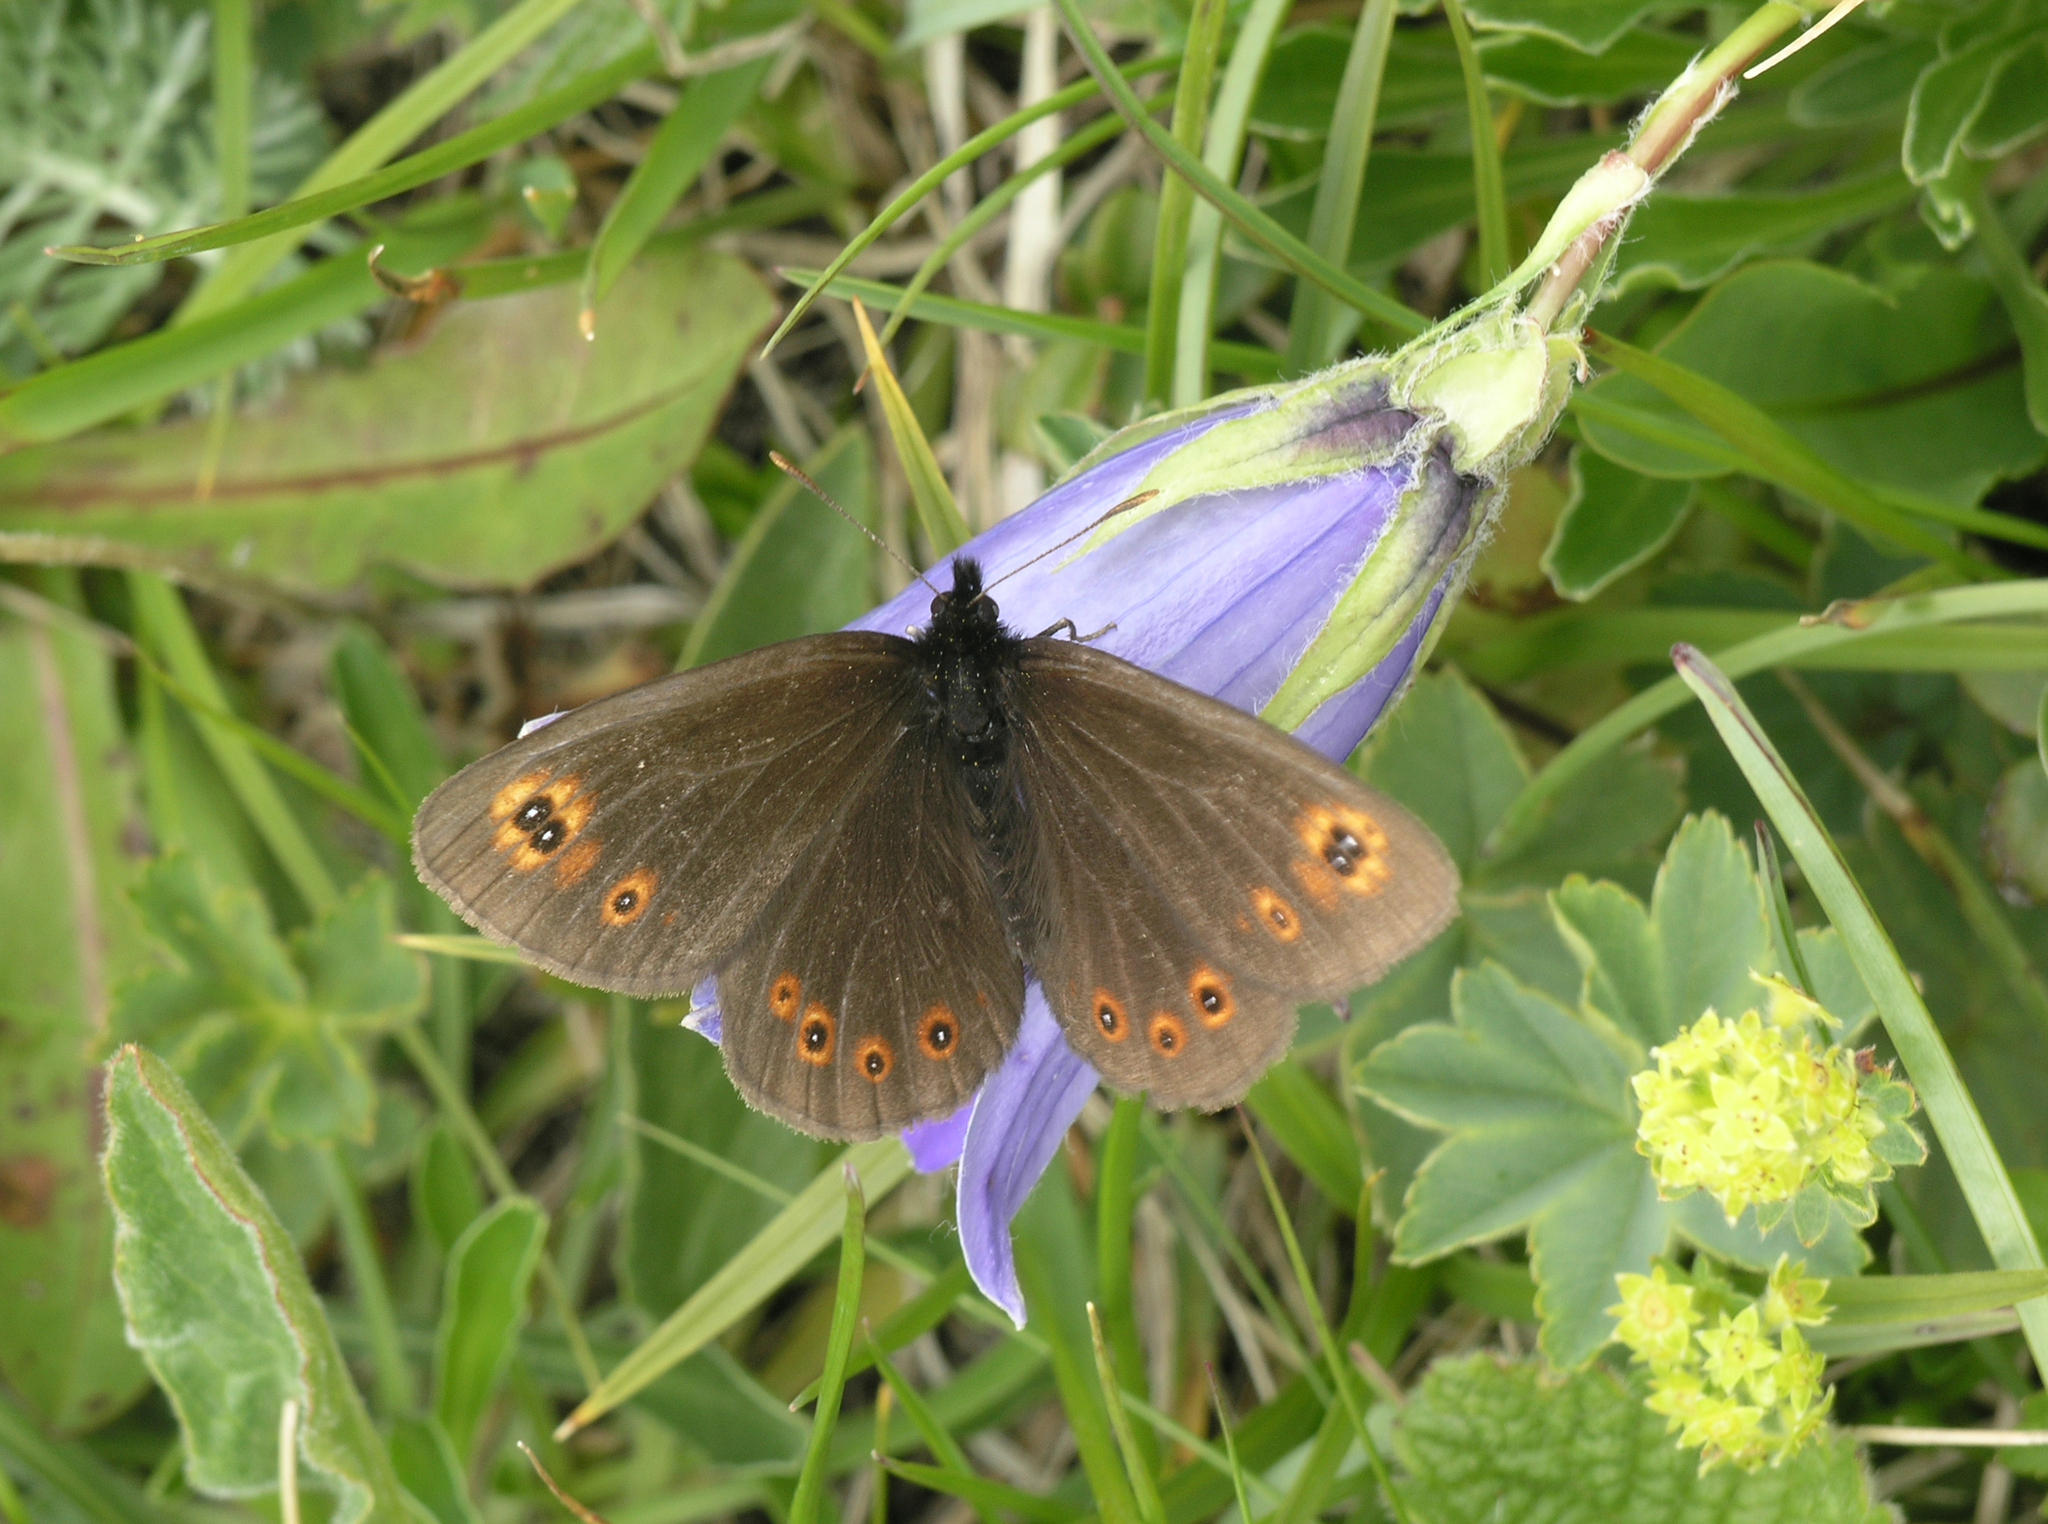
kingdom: Animalia
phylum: Arthropoda
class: Insecta
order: Lepidoptera
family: Nymphalidae
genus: Erebia
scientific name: Erebia medusa
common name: Woodland ringlet
